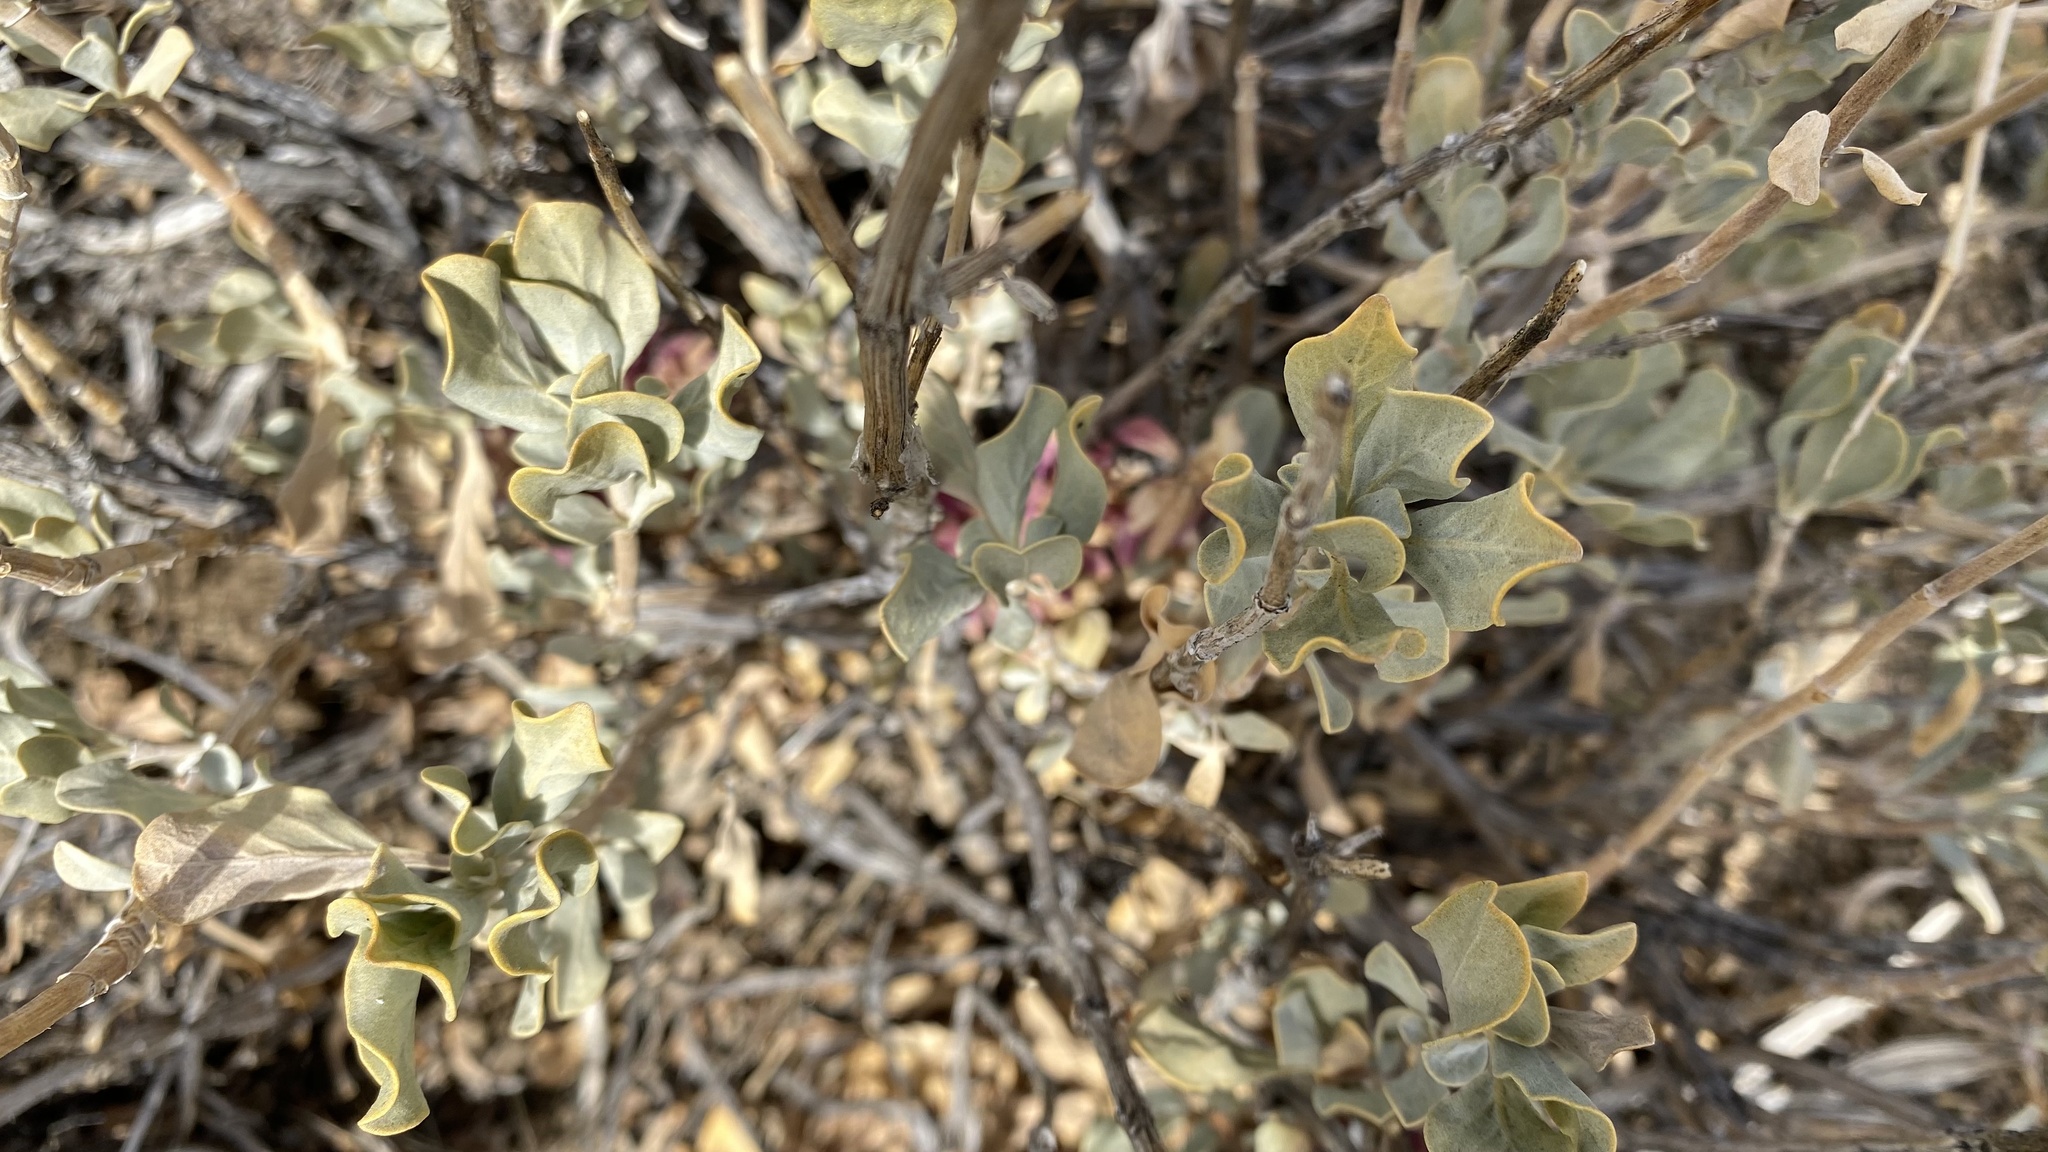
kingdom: Plantae
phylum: Tracheophyta
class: Magnoliopsida
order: Lamiales
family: Lamiaceae
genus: Salvia
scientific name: Salvia pachyphylla
